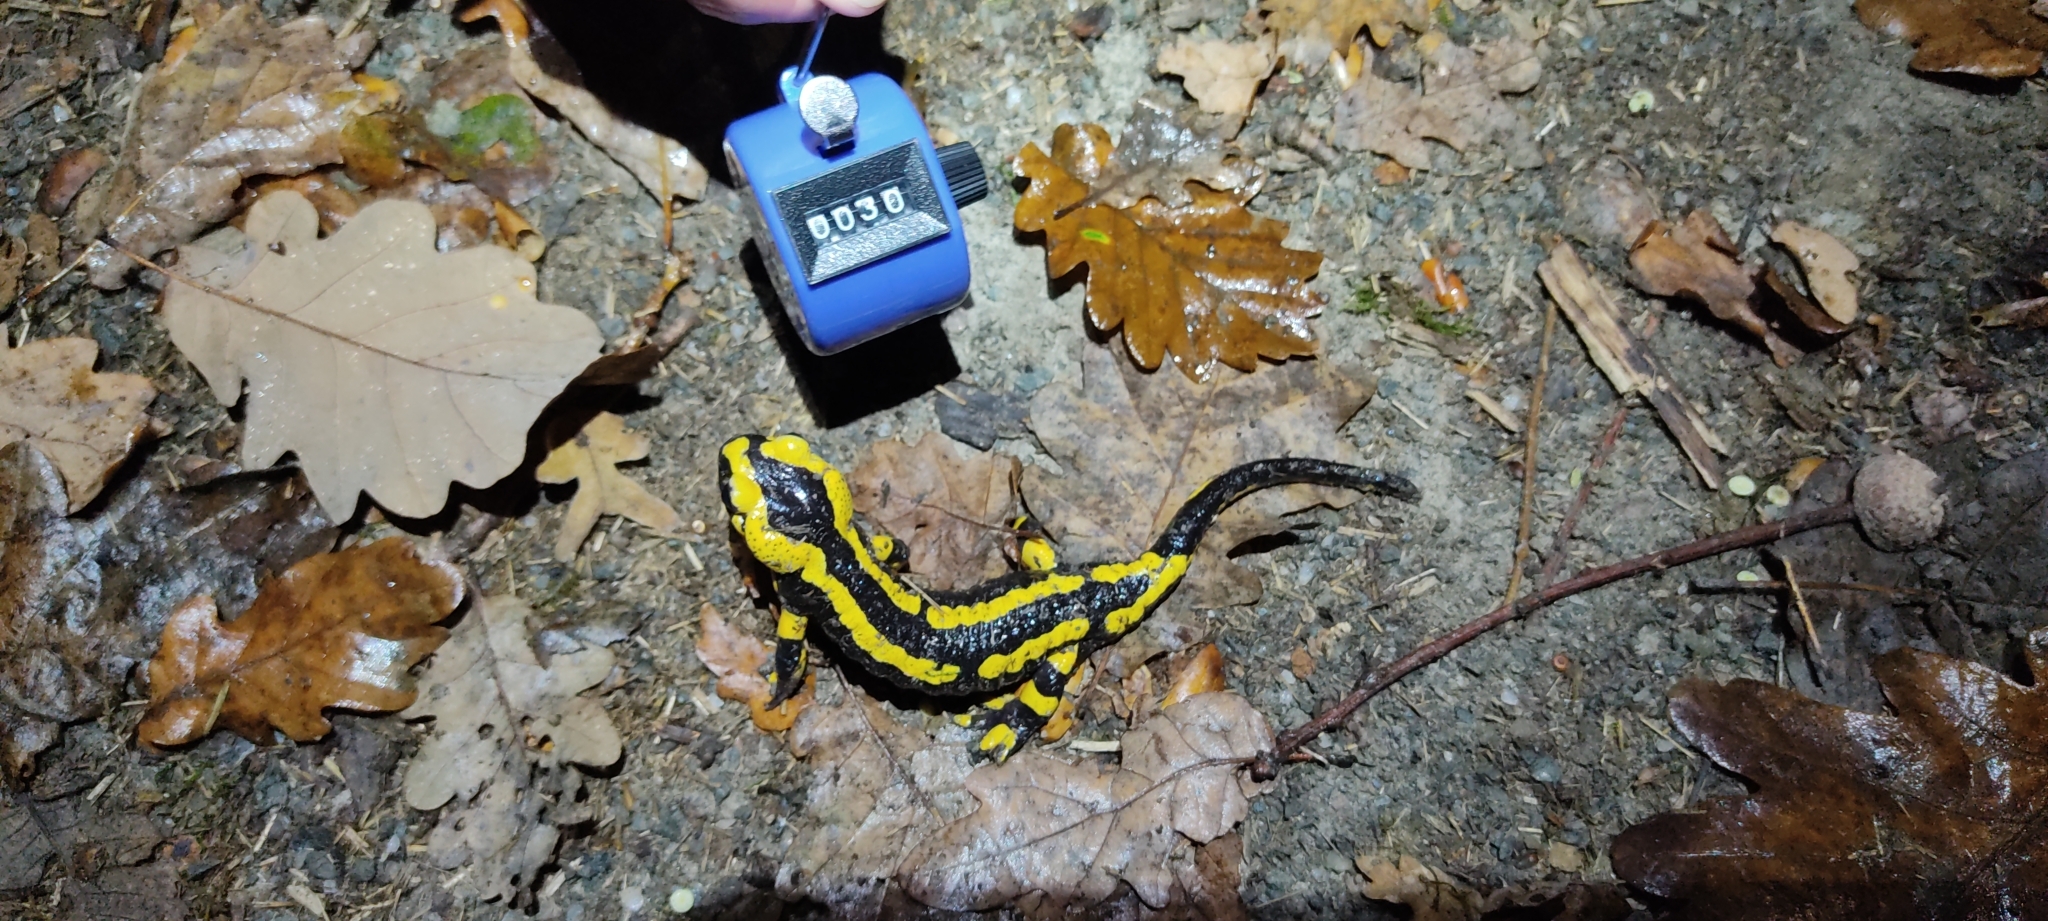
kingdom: Animalia
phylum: Chordata
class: Amphibia
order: Caudata
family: Salamandridae
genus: Salamandra
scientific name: Salamandra salamandra
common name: Fire salamander
